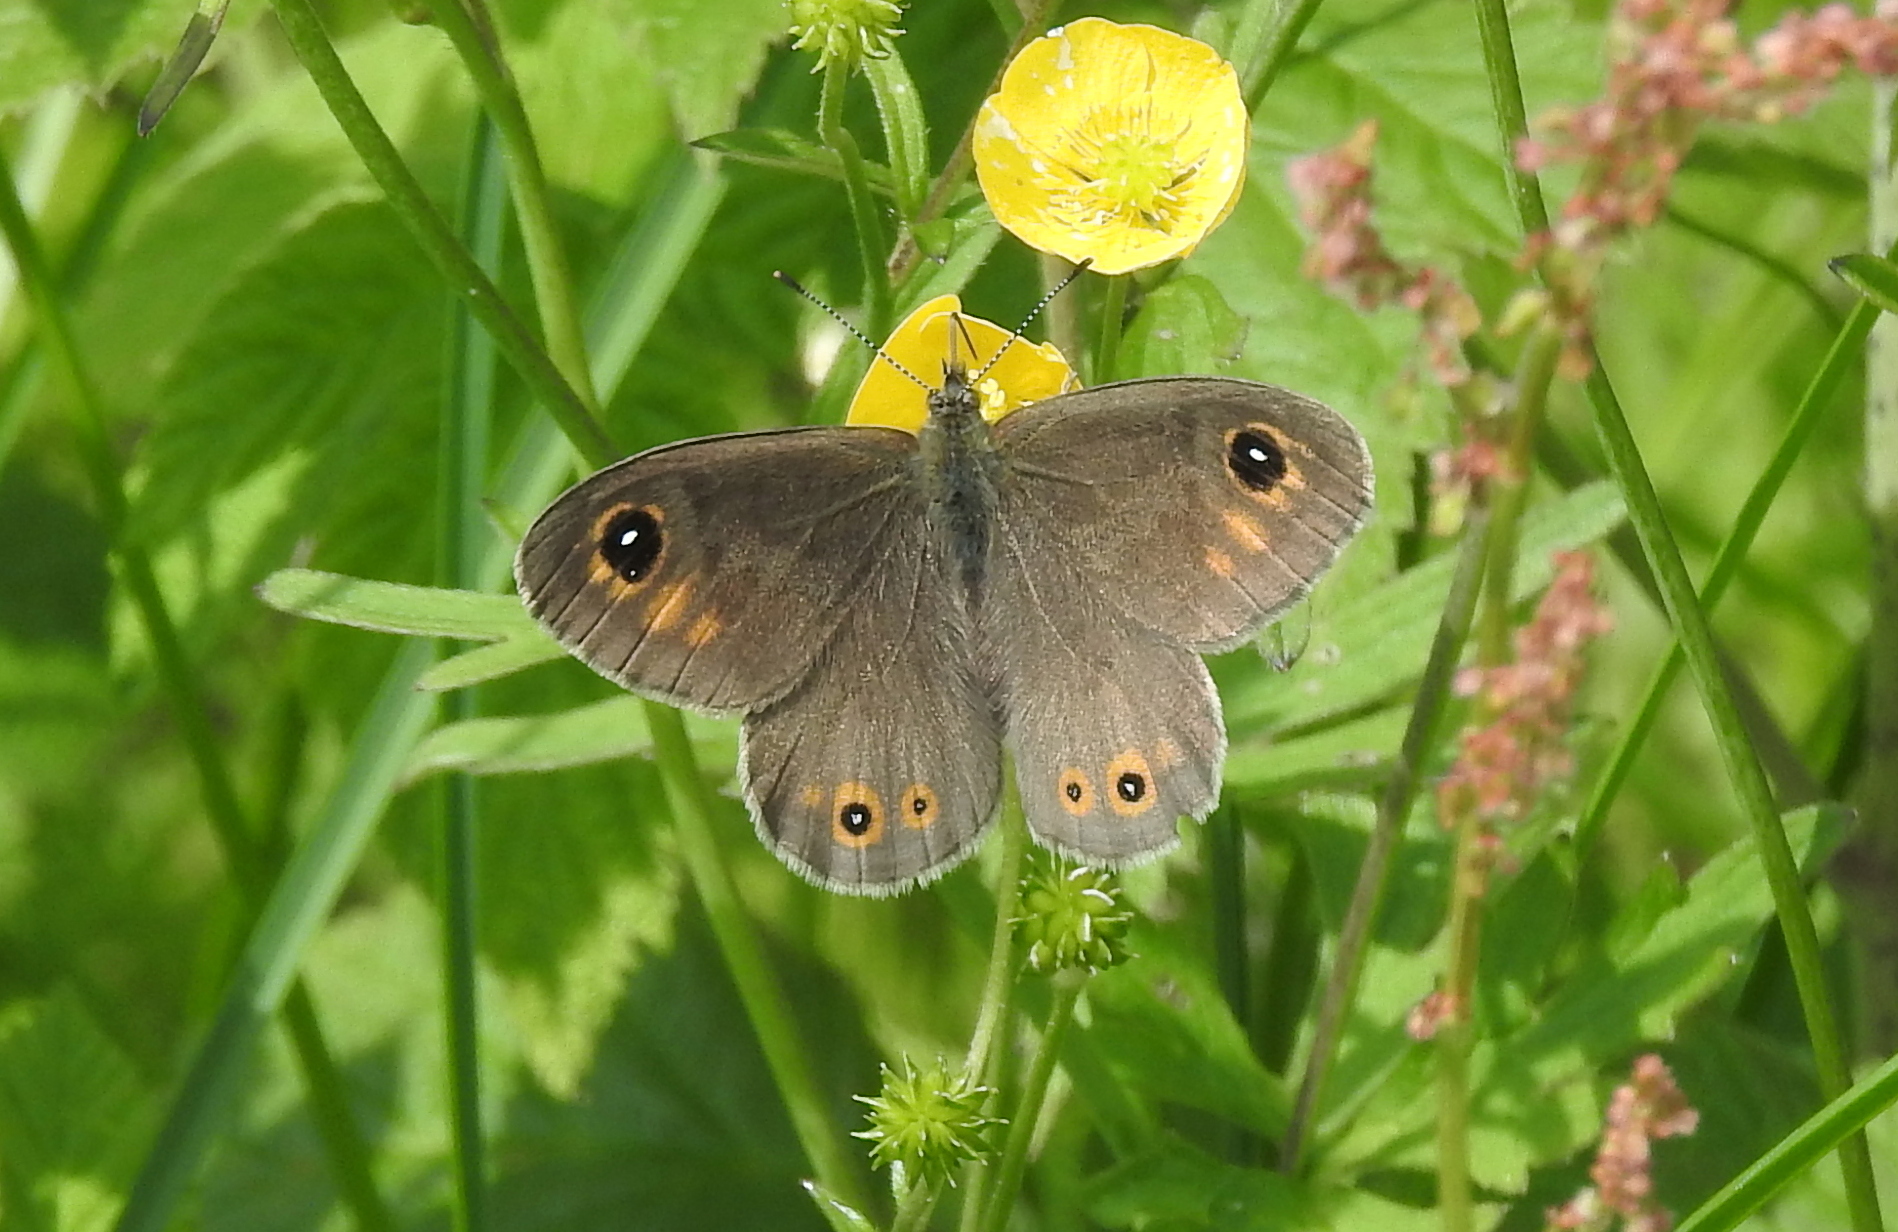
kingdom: Animalia
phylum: Arthropoda
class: Insecta
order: Lepidoptera
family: Nymphalidae
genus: Pararge
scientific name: Pararge Lasiommata maera
